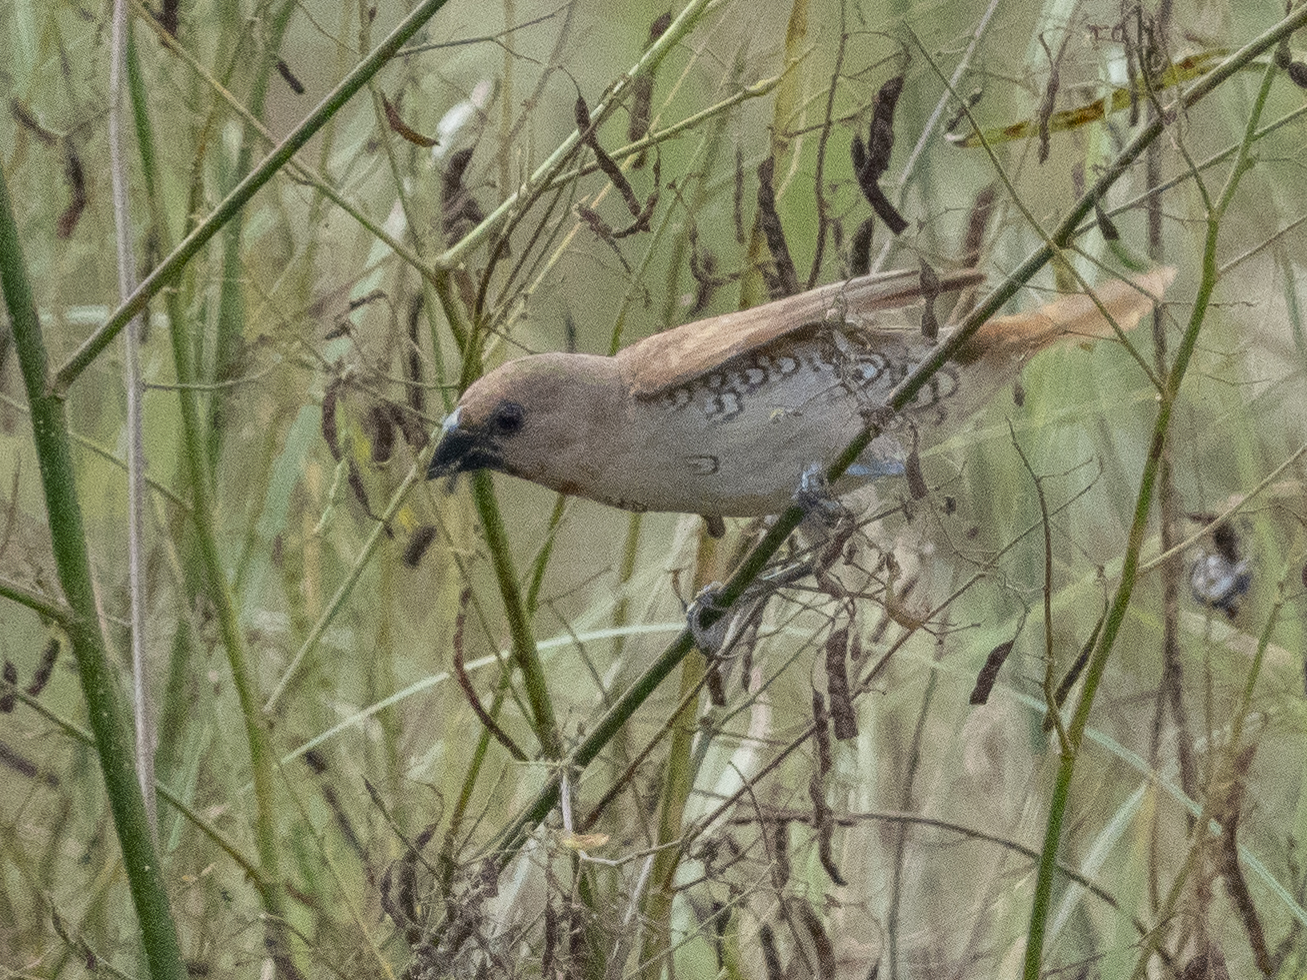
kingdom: Animalia
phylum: Chordata
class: Aves
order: Passeriformes
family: Estrildidae
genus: Lonchura
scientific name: Lonchura punctulata
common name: Scaly-breasted munia
